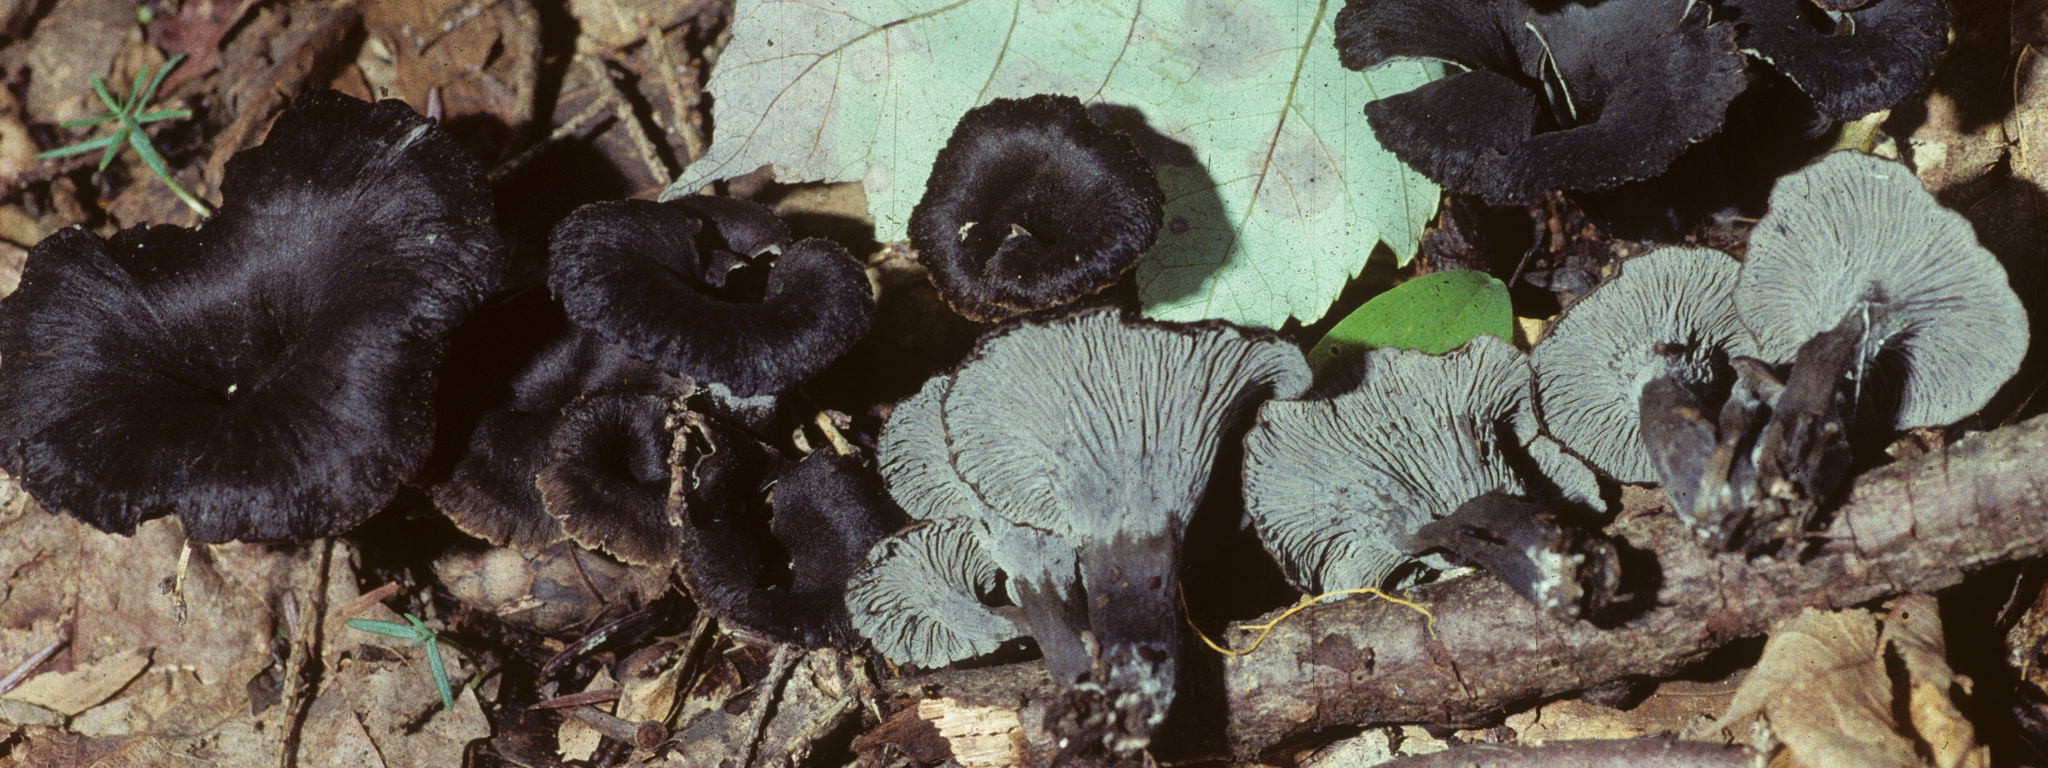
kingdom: Fungi
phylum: Basidiomycota
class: Agaricomycetes
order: Cantharellales
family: Hydnaceae
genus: Cantharellus
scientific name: Cantharellus cinereus
